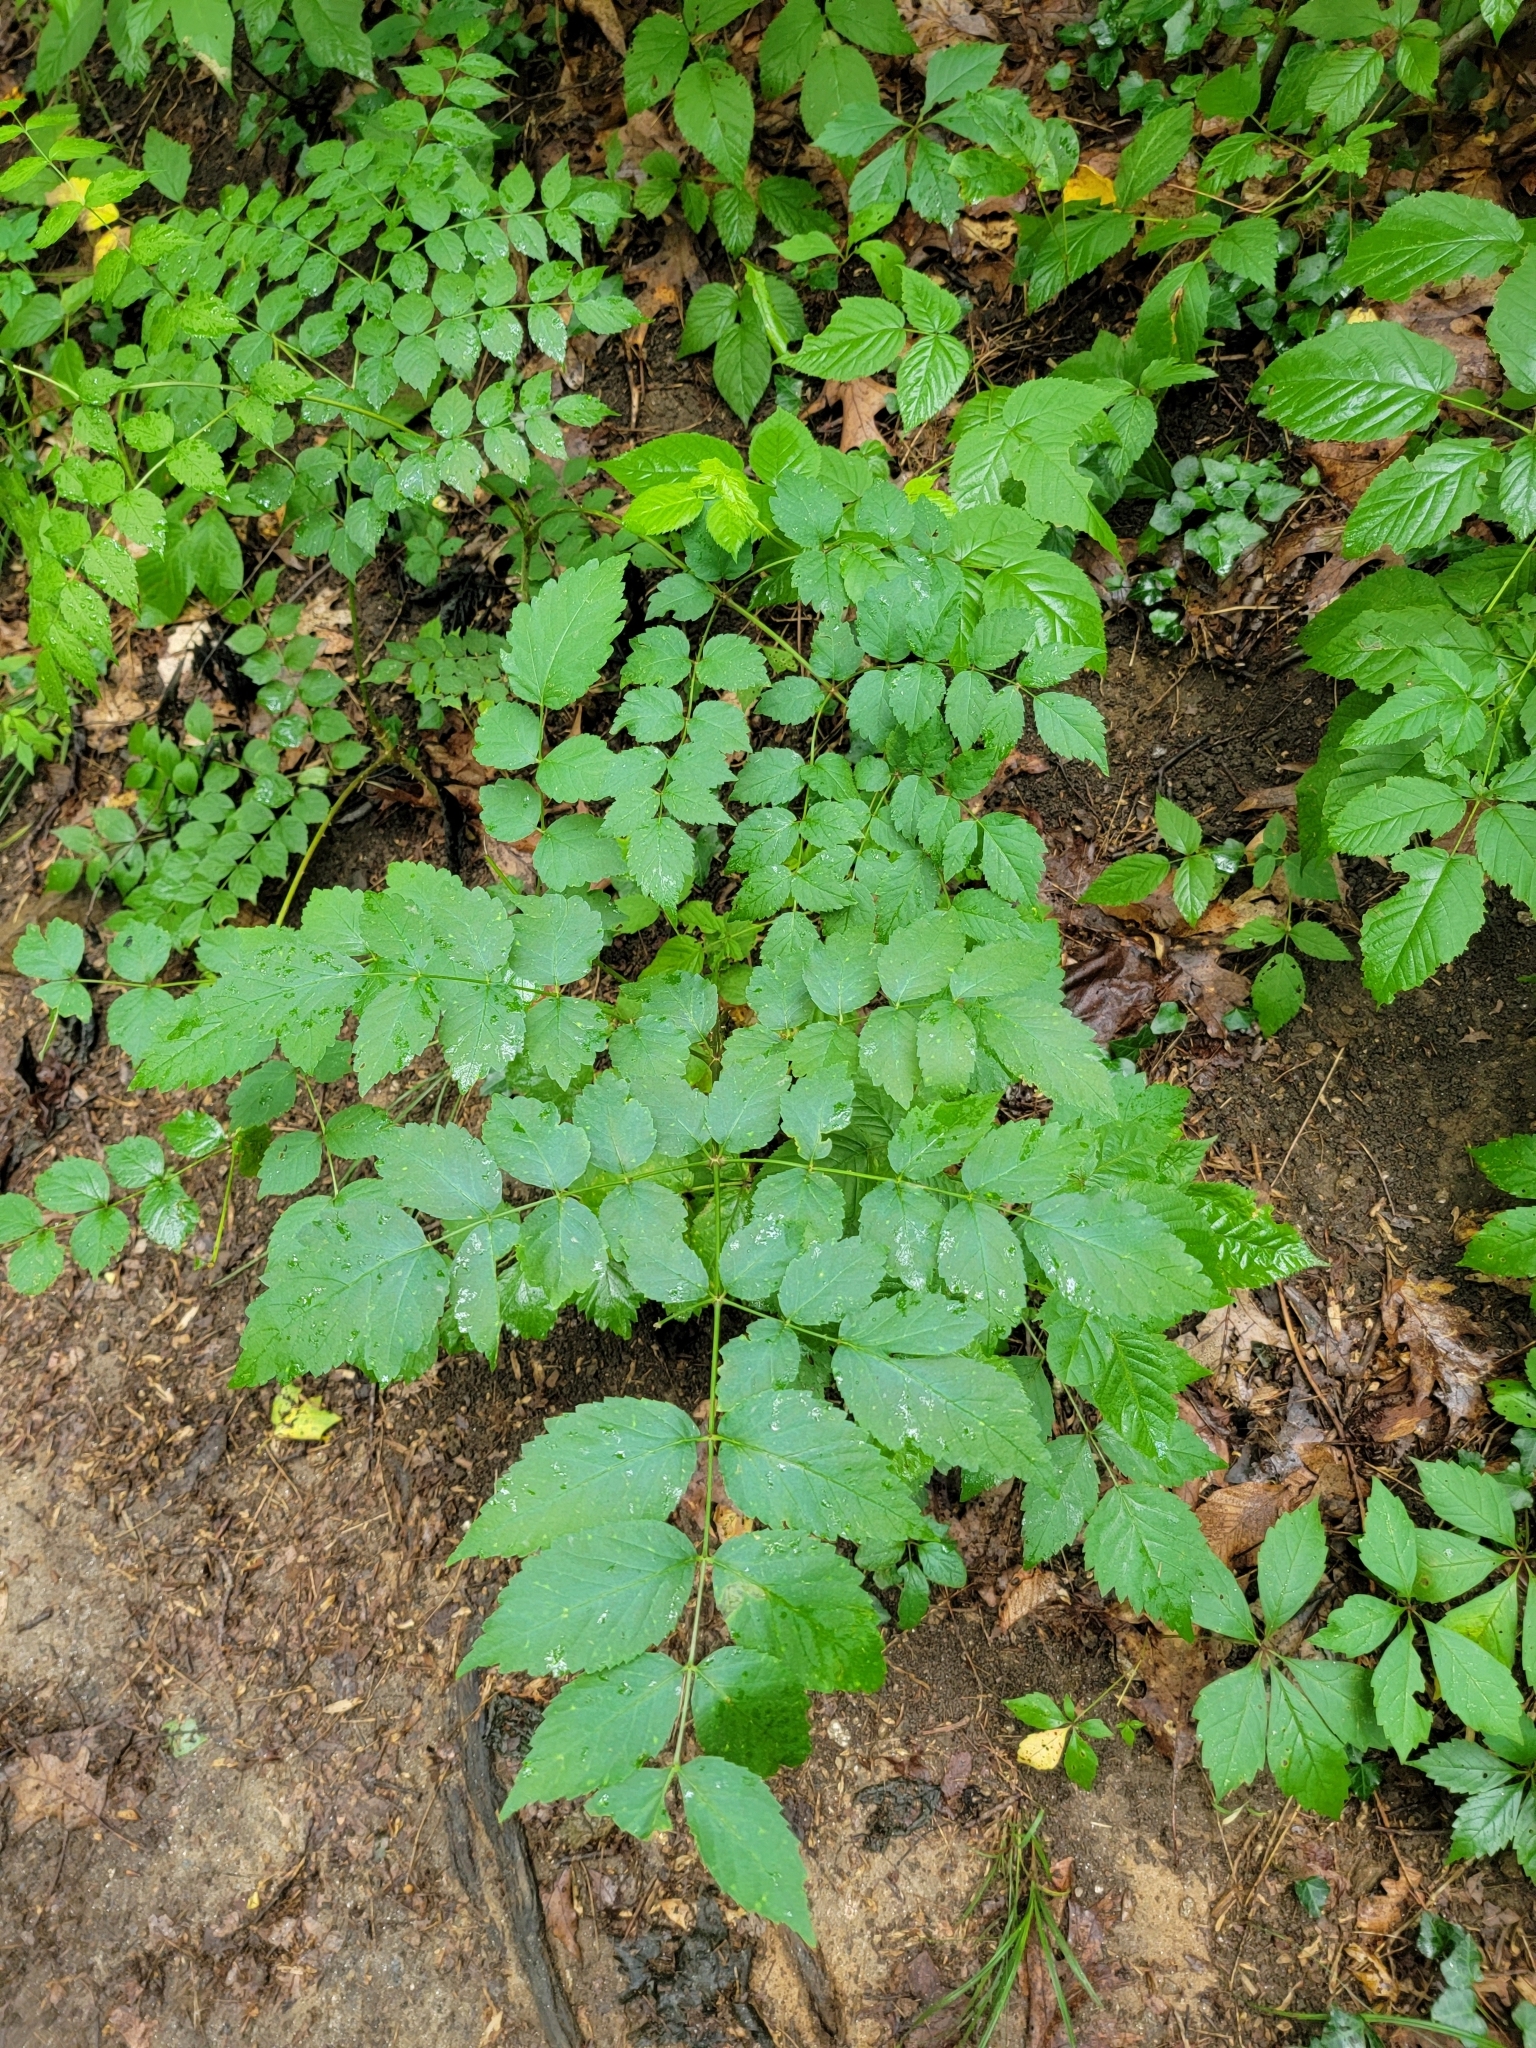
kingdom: Plantae
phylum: Tracheophyta
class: Magnoliopsida
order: Apiales
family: Araliaceae
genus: Aralia
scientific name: Aralia elata
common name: Japanese angelica-tree
